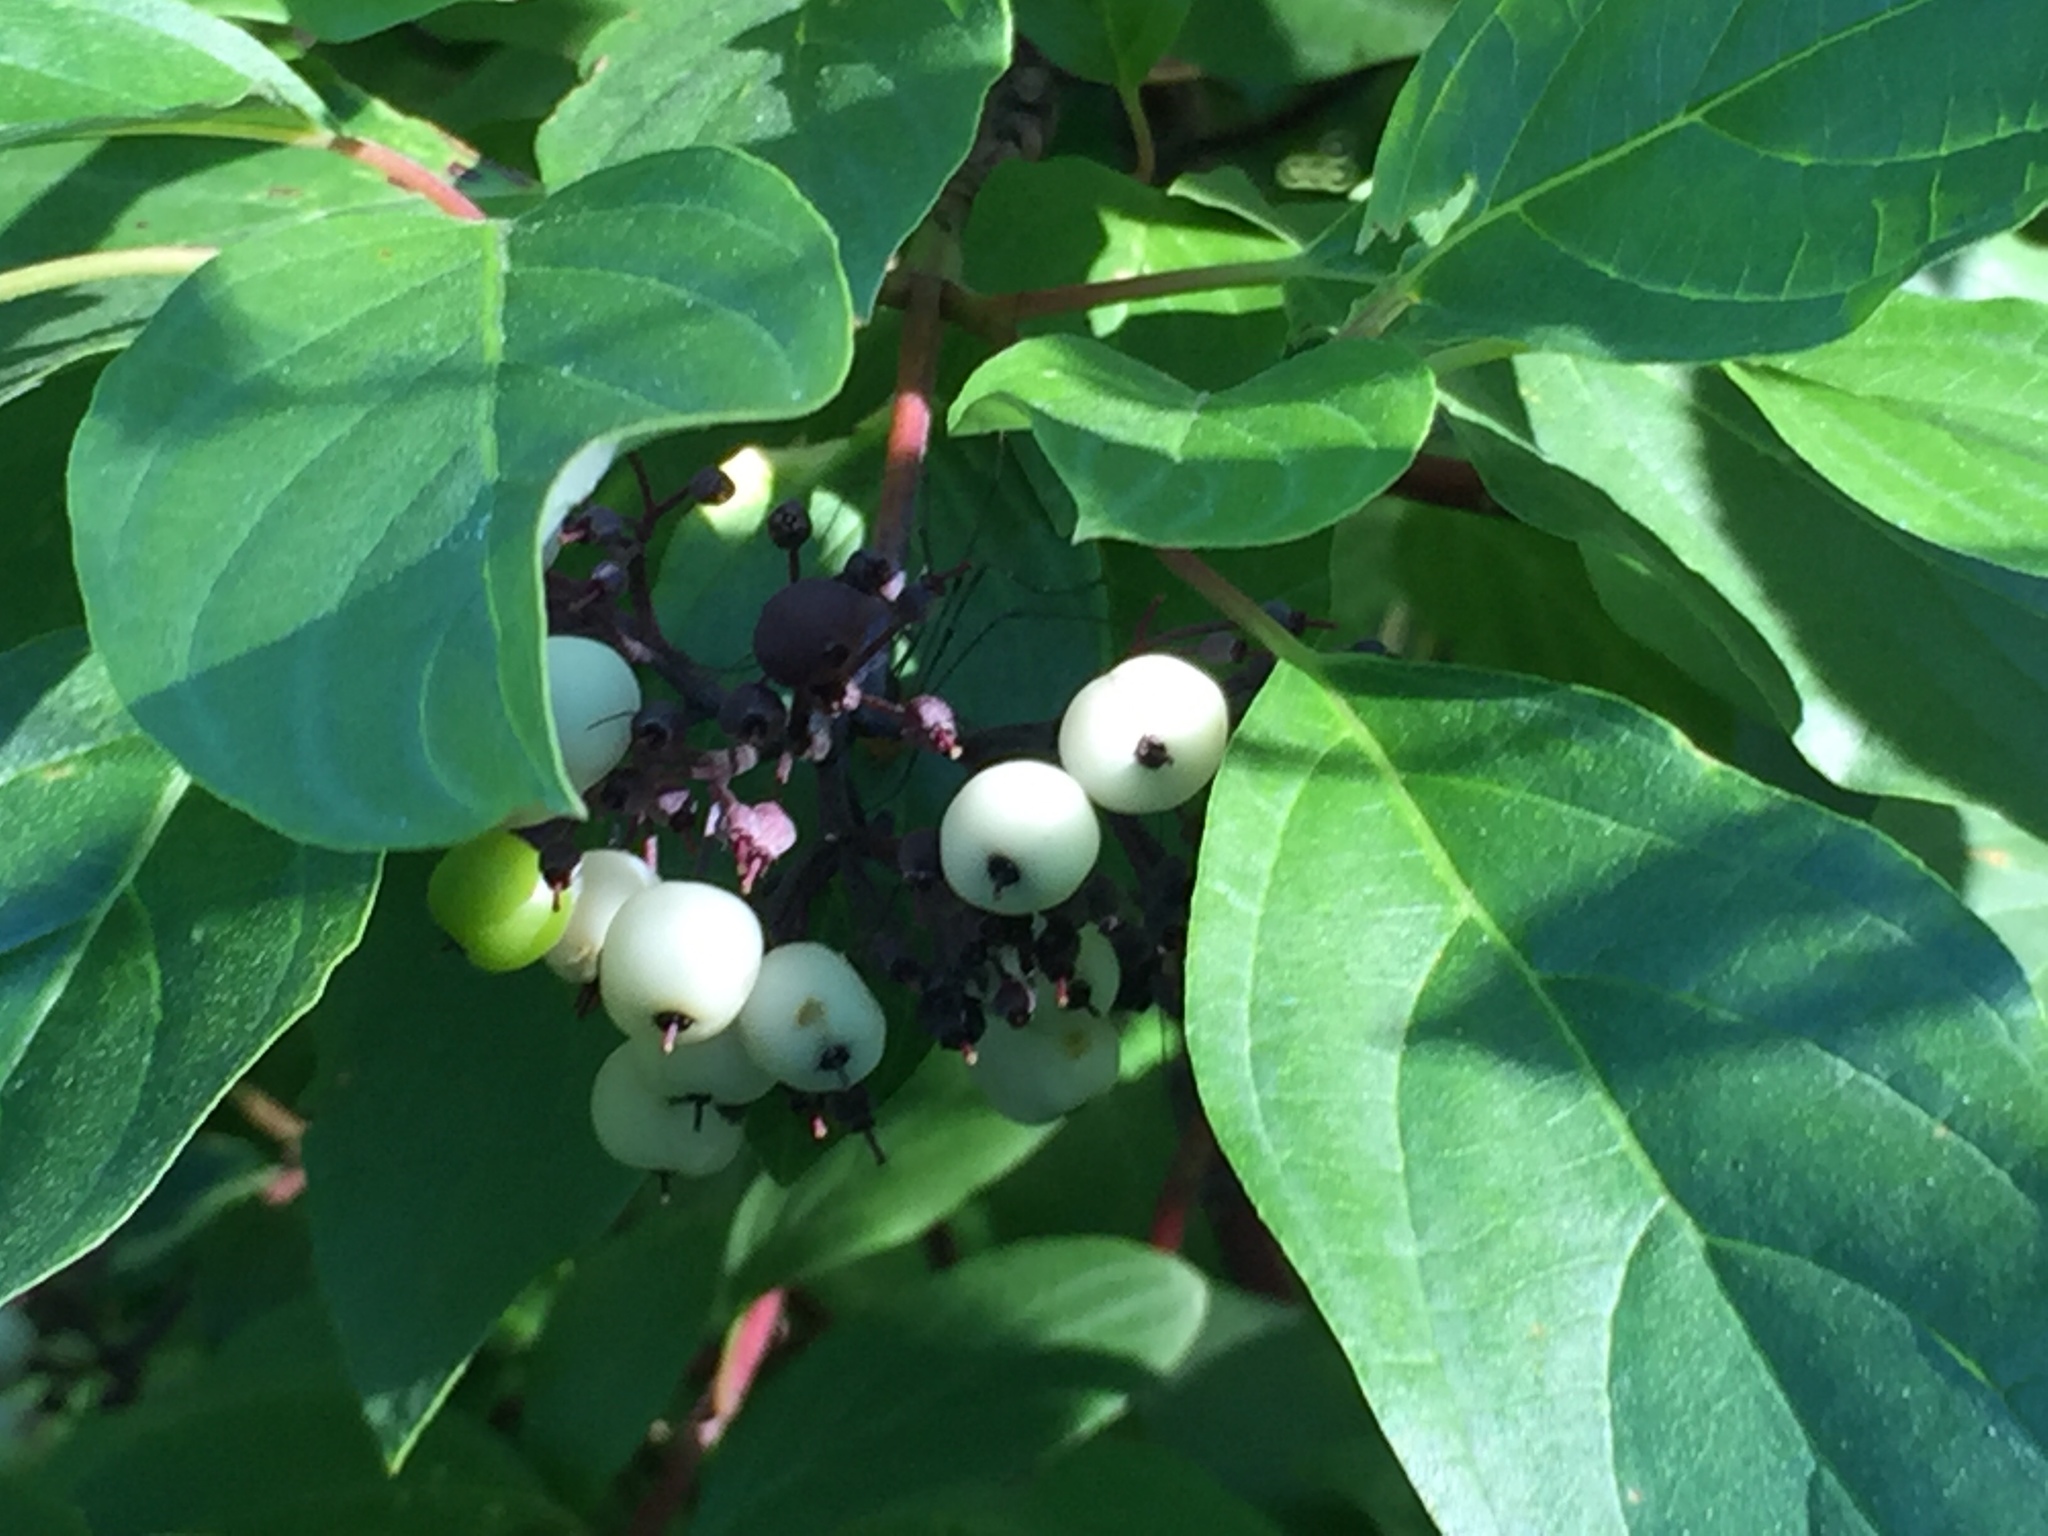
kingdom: Plantae
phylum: Tracheophyta
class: Magnoliopsida
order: Cornales
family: Cornaceae
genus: Cornus
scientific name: Cornus sericea
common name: Red-osier dogwood
